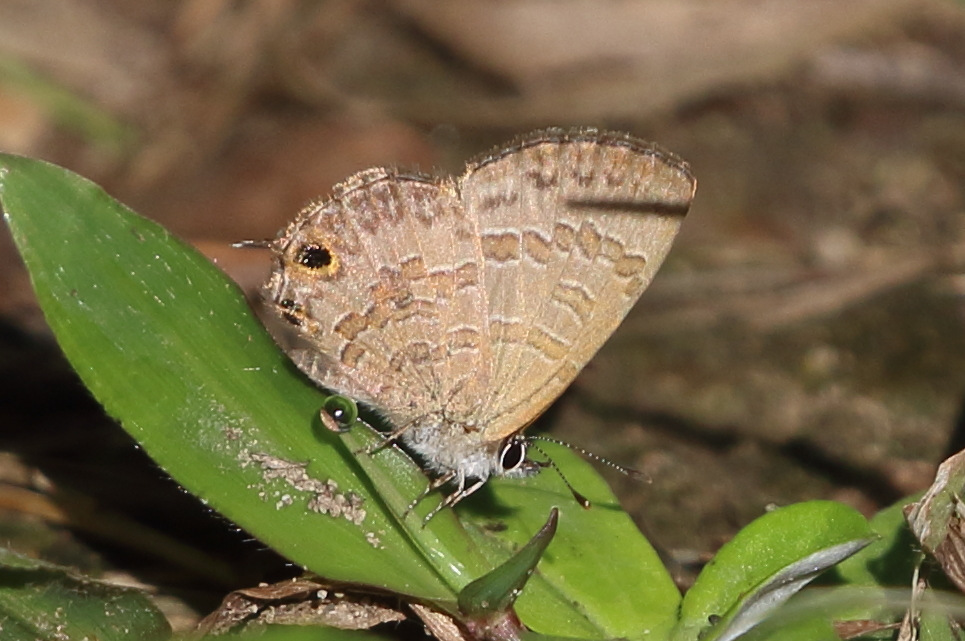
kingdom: Animalia
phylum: Arthropoda
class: Insecta
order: Lepidoptera
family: Lycaenidae
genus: Prosotas
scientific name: Prosotas felderi
